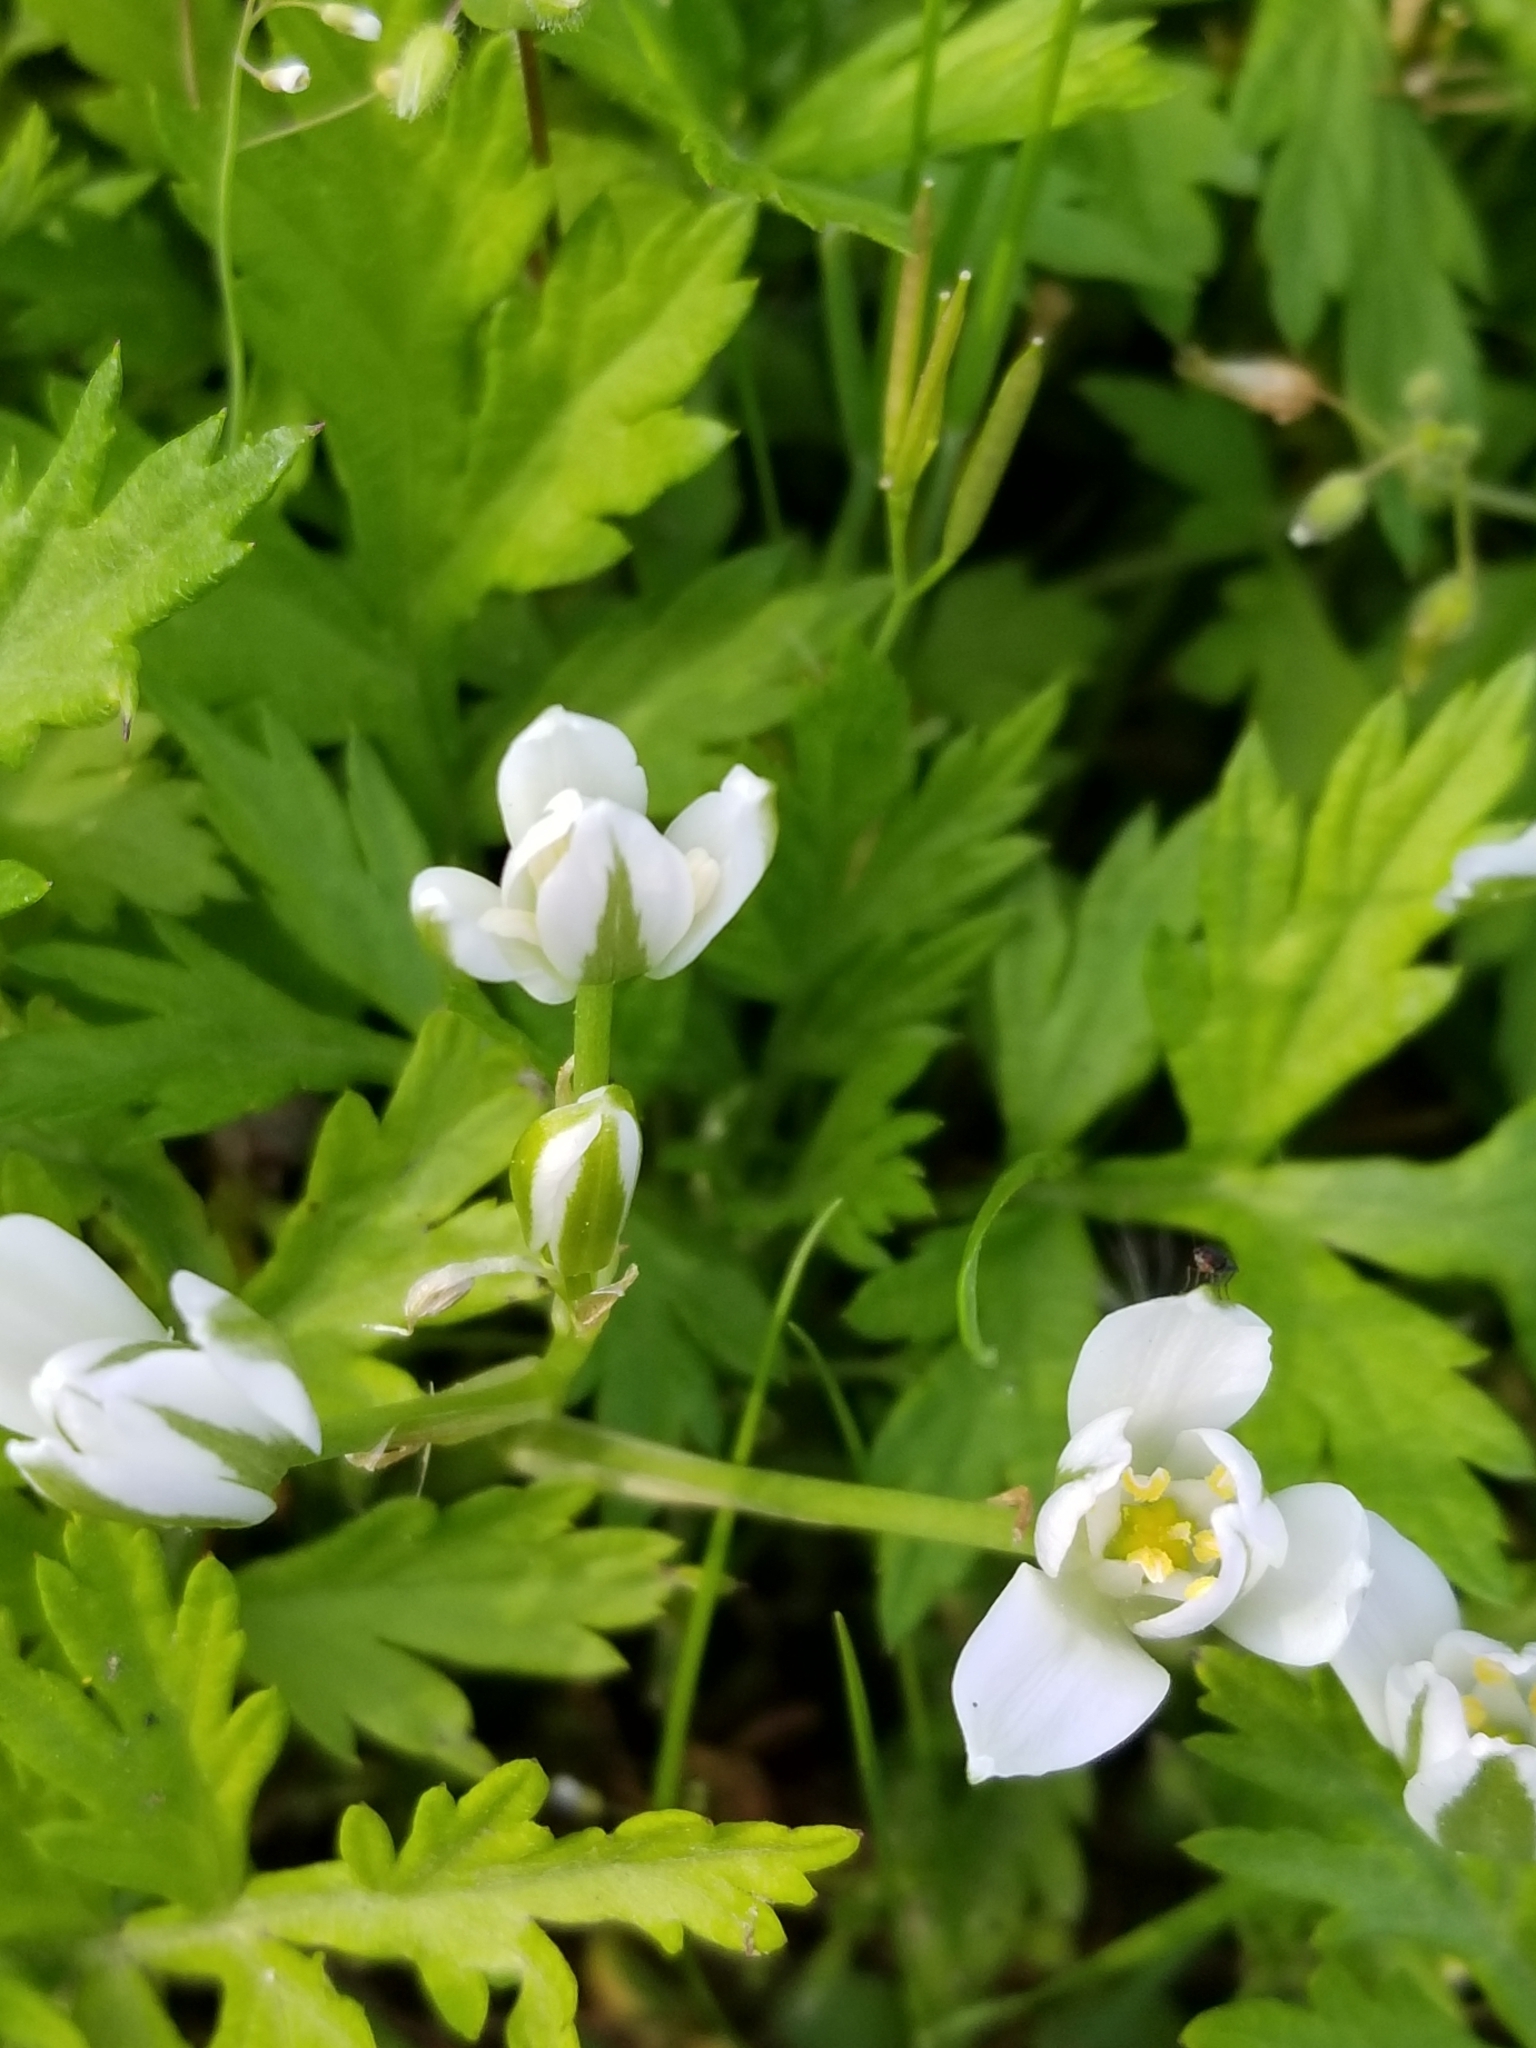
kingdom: Plantae
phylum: Tracheophyta
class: Liliopsida
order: Asparagales
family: Asparagaceae
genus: Ornithogalum
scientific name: Ornithogalum umbellatum
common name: Garden star-of-bethlehem
